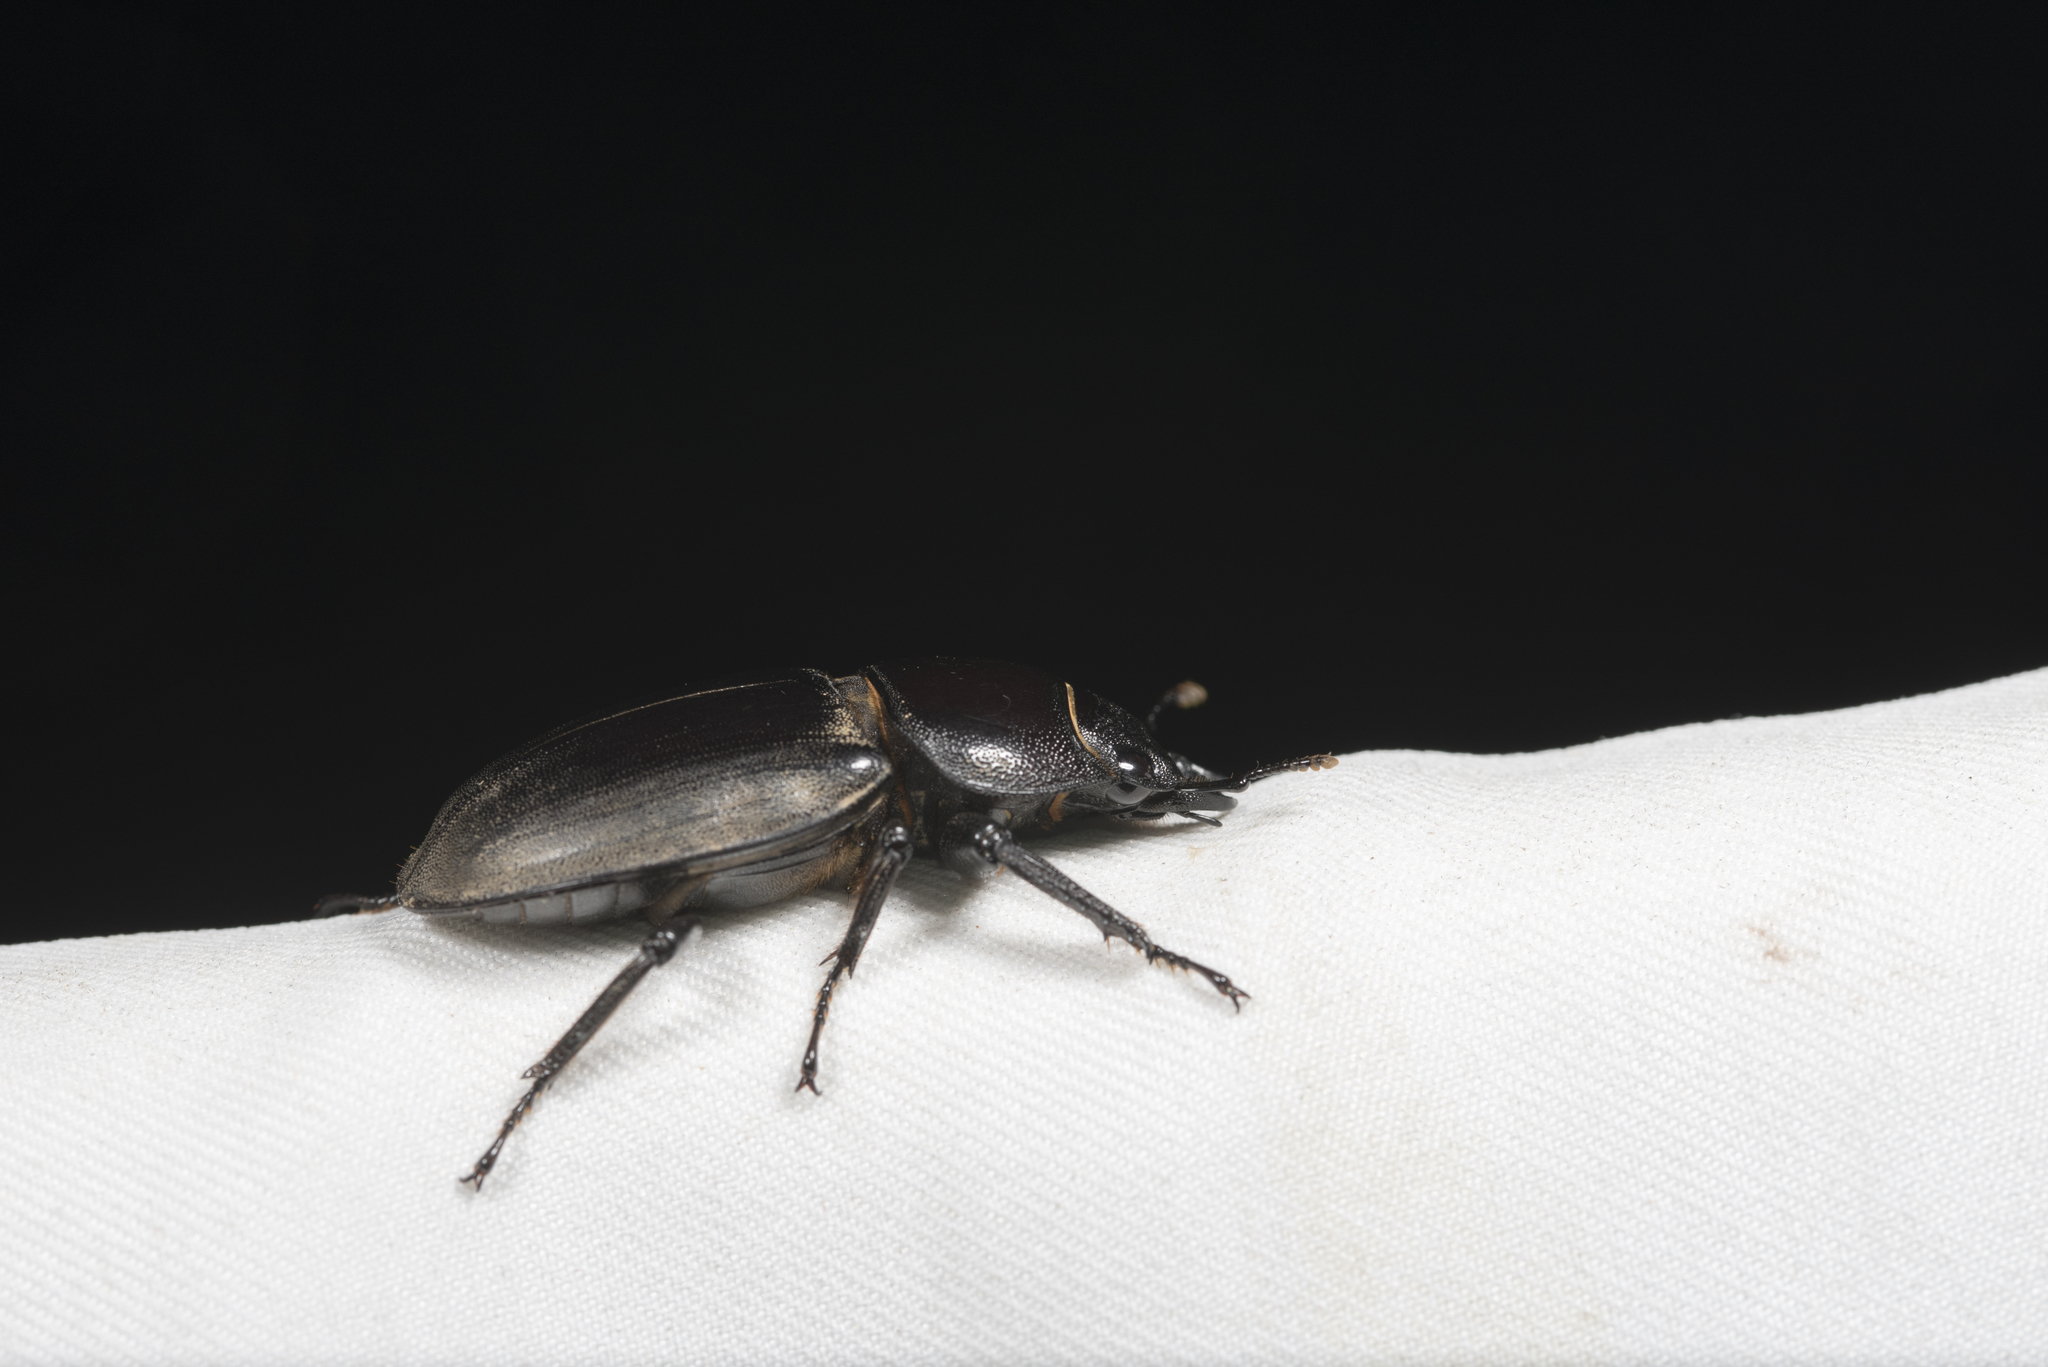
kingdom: Animalia
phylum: Arthropoda
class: Insecta
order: Coleoptera
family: Lucanidae
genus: Serrognathus
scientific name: Serrognathus titanus
